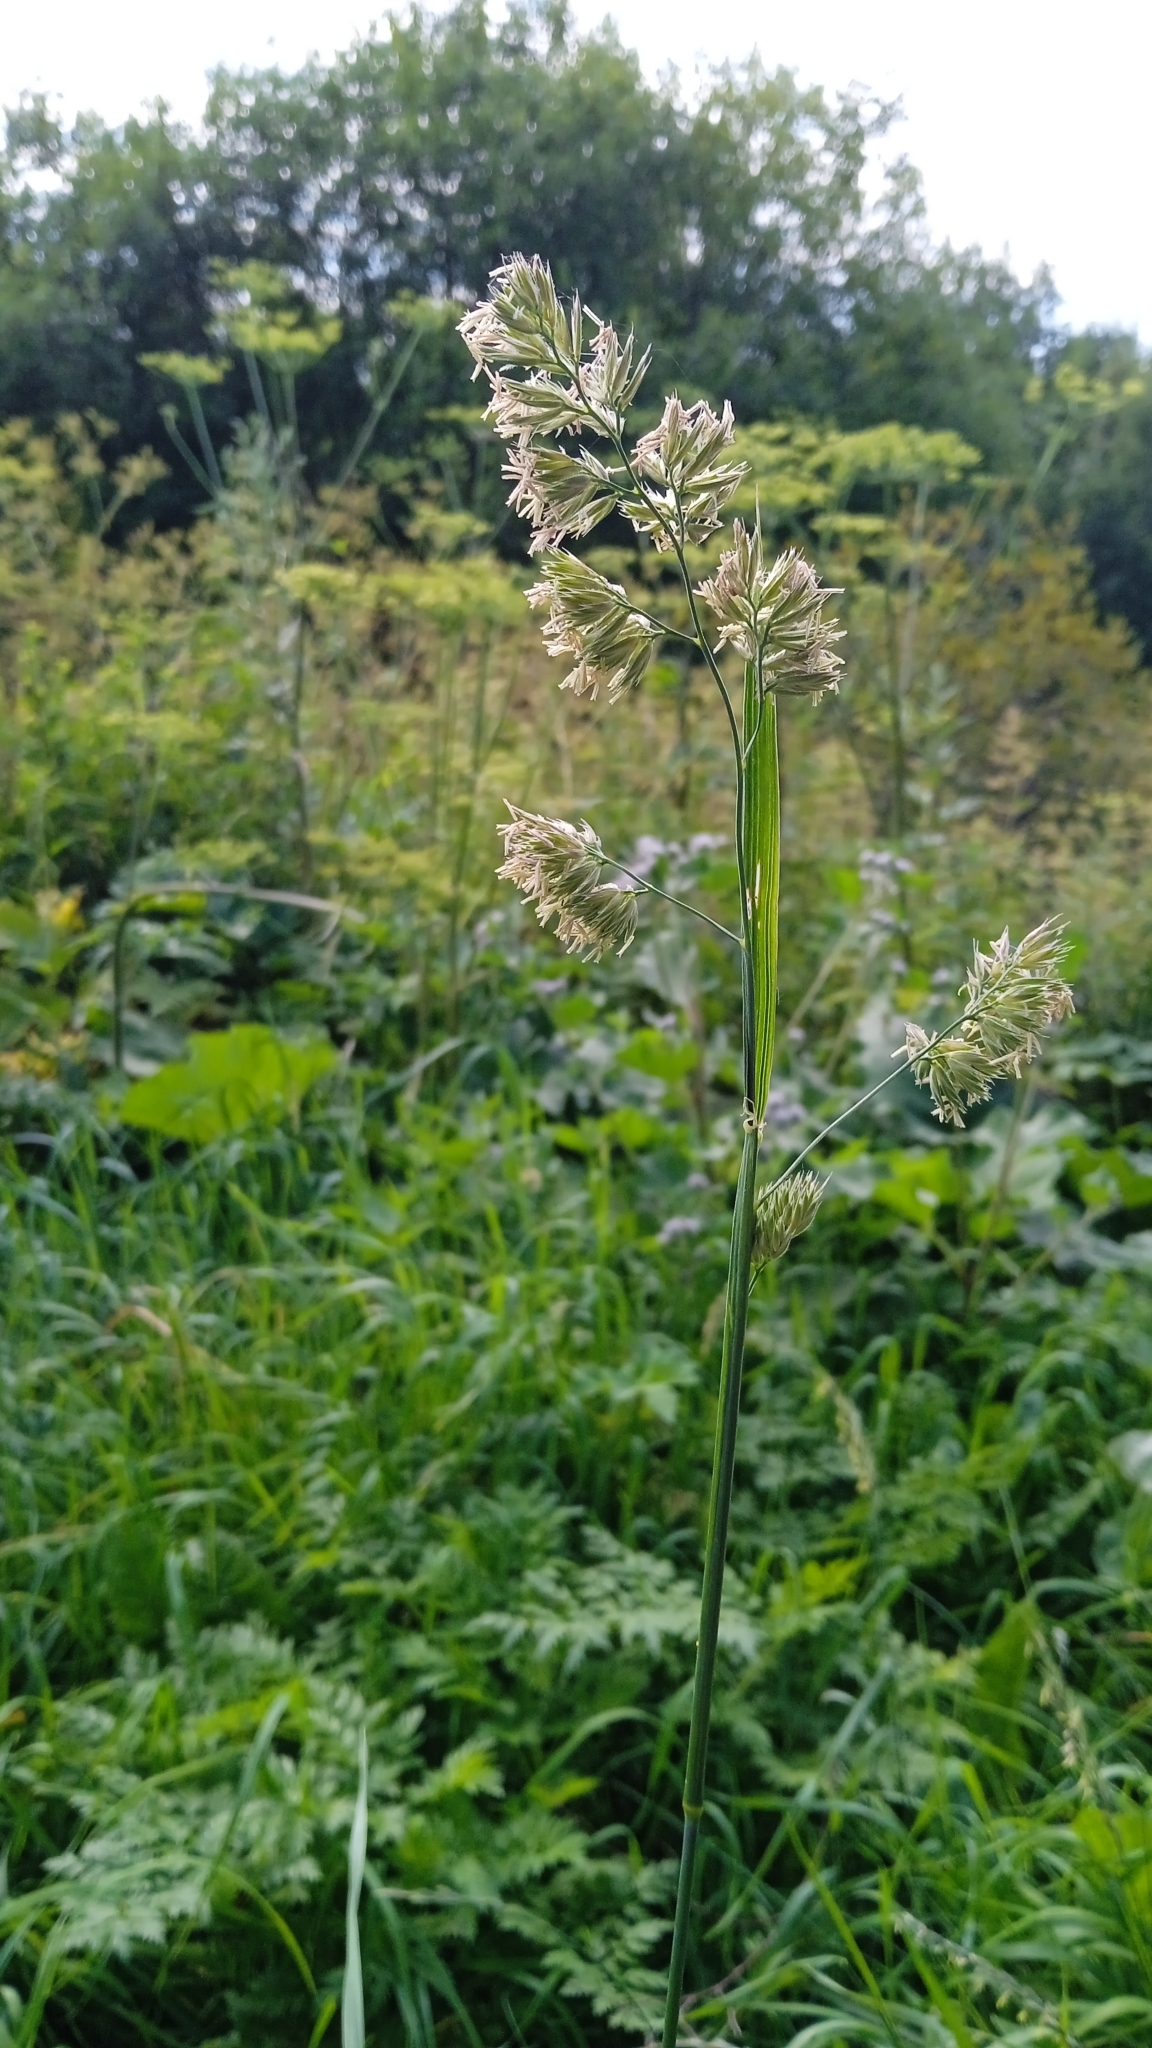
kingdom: Plantae
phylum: Tracheophyta
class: Liliopsida
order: Poales
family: Poaceae
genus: Dactylis
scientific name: Dactylis glomerata
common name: Orchardgrass
